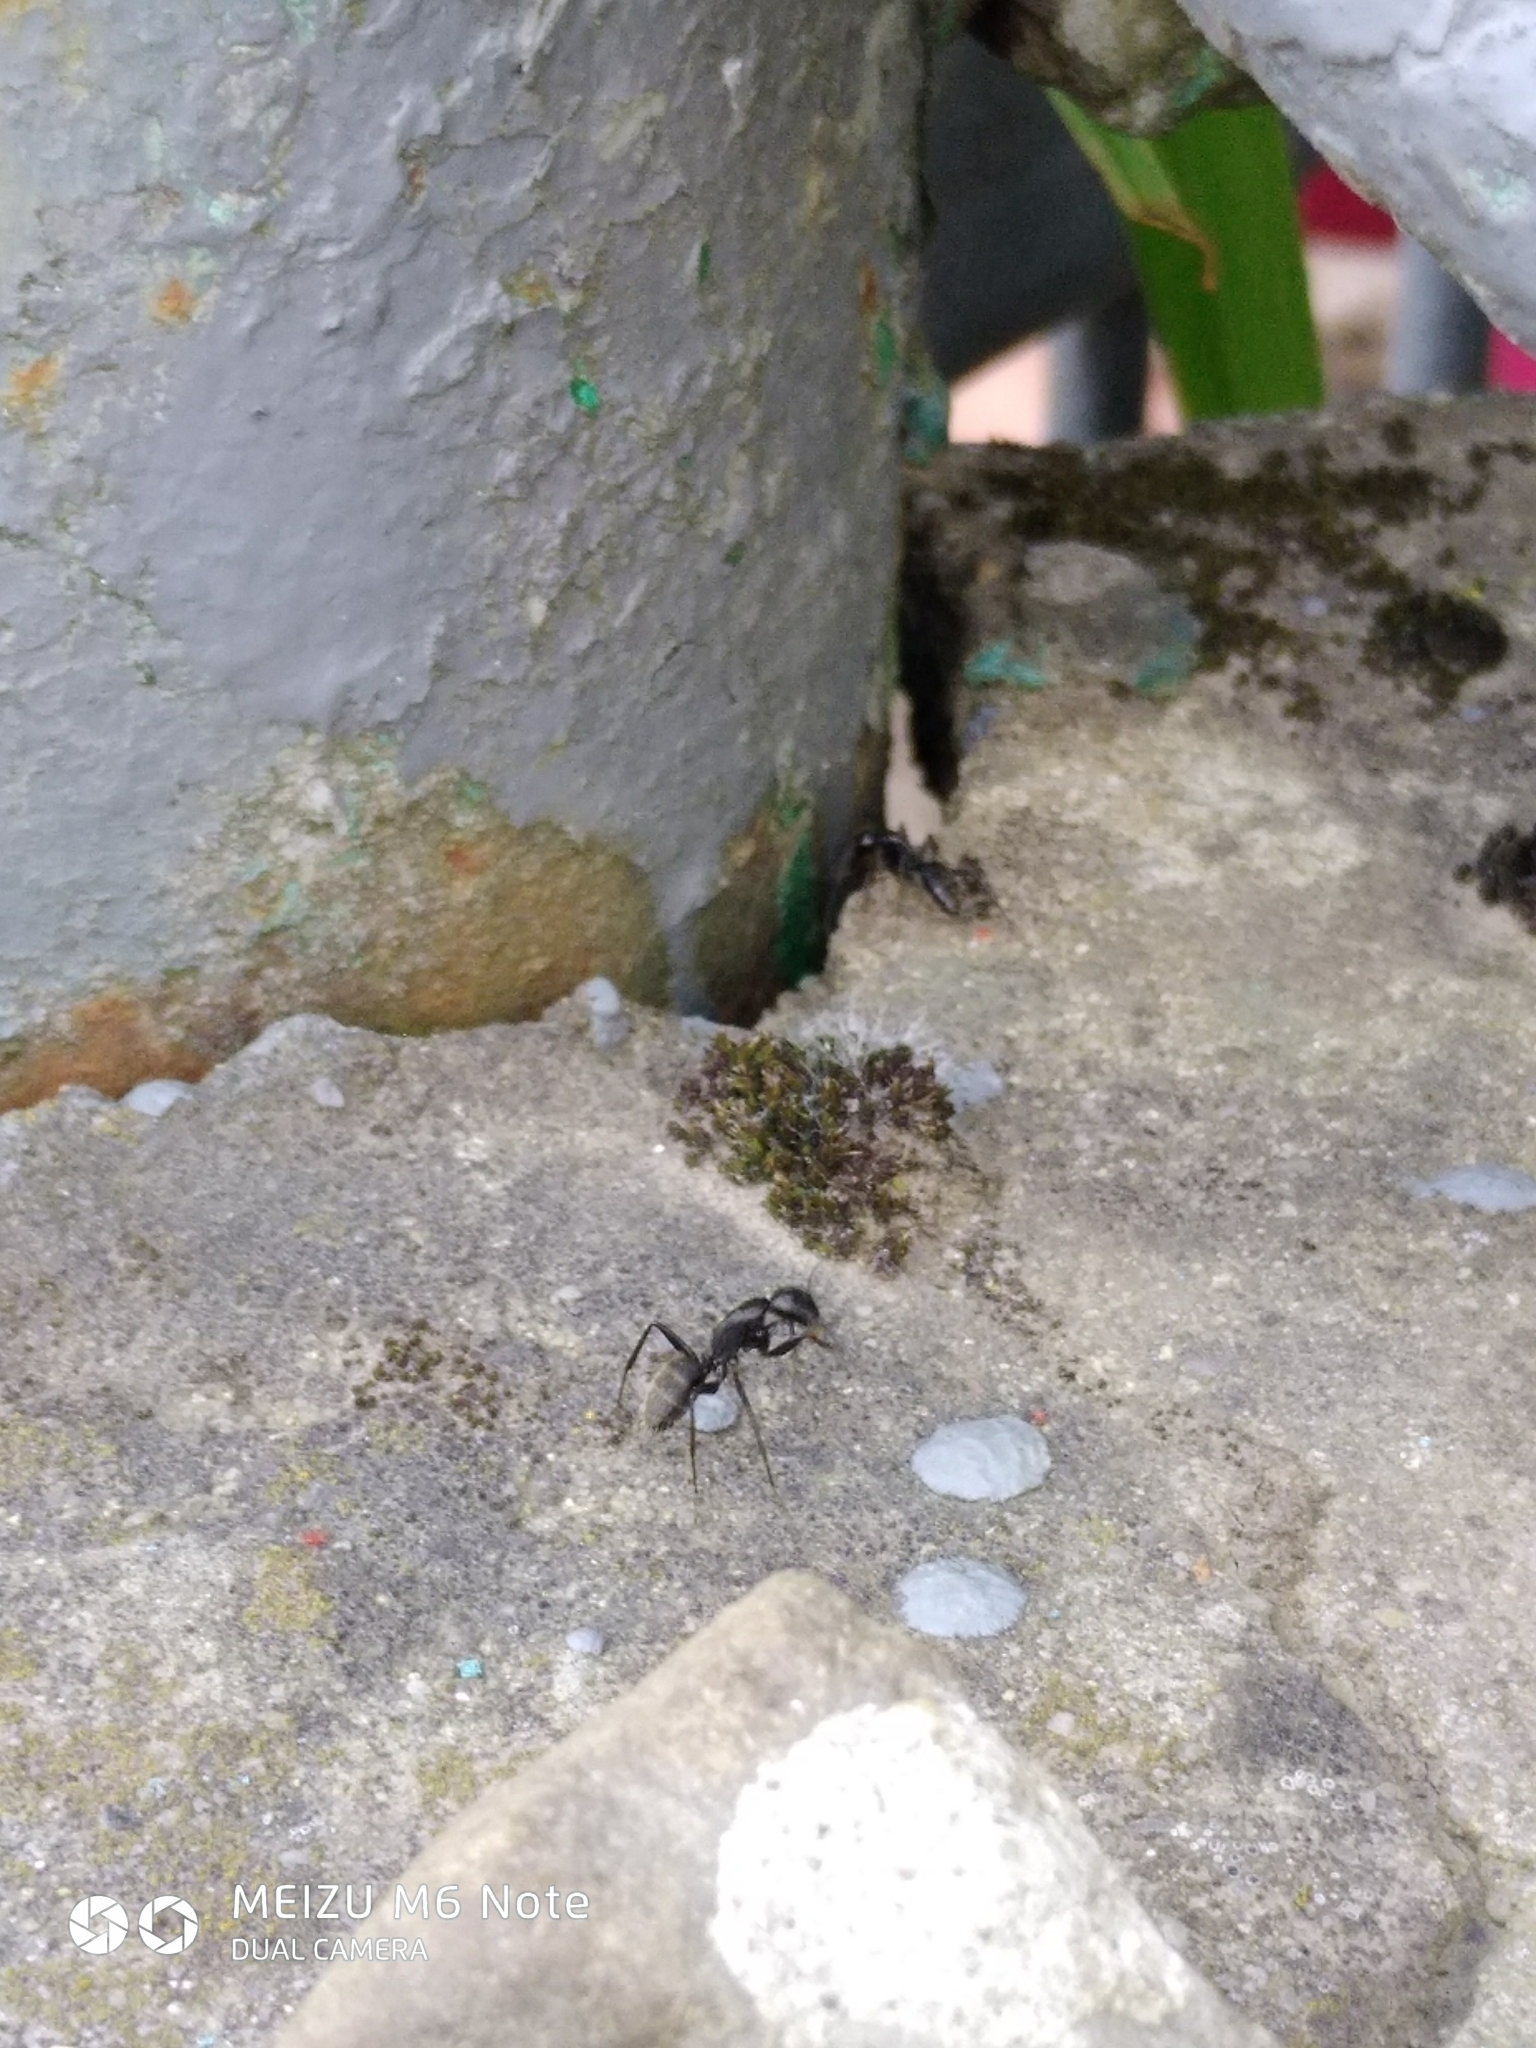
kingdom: Animalia
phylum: Arthropoda
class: Insecta
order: Hymenoptera
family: Formicidae
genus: Camponotus
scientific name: Camponotus vagus
